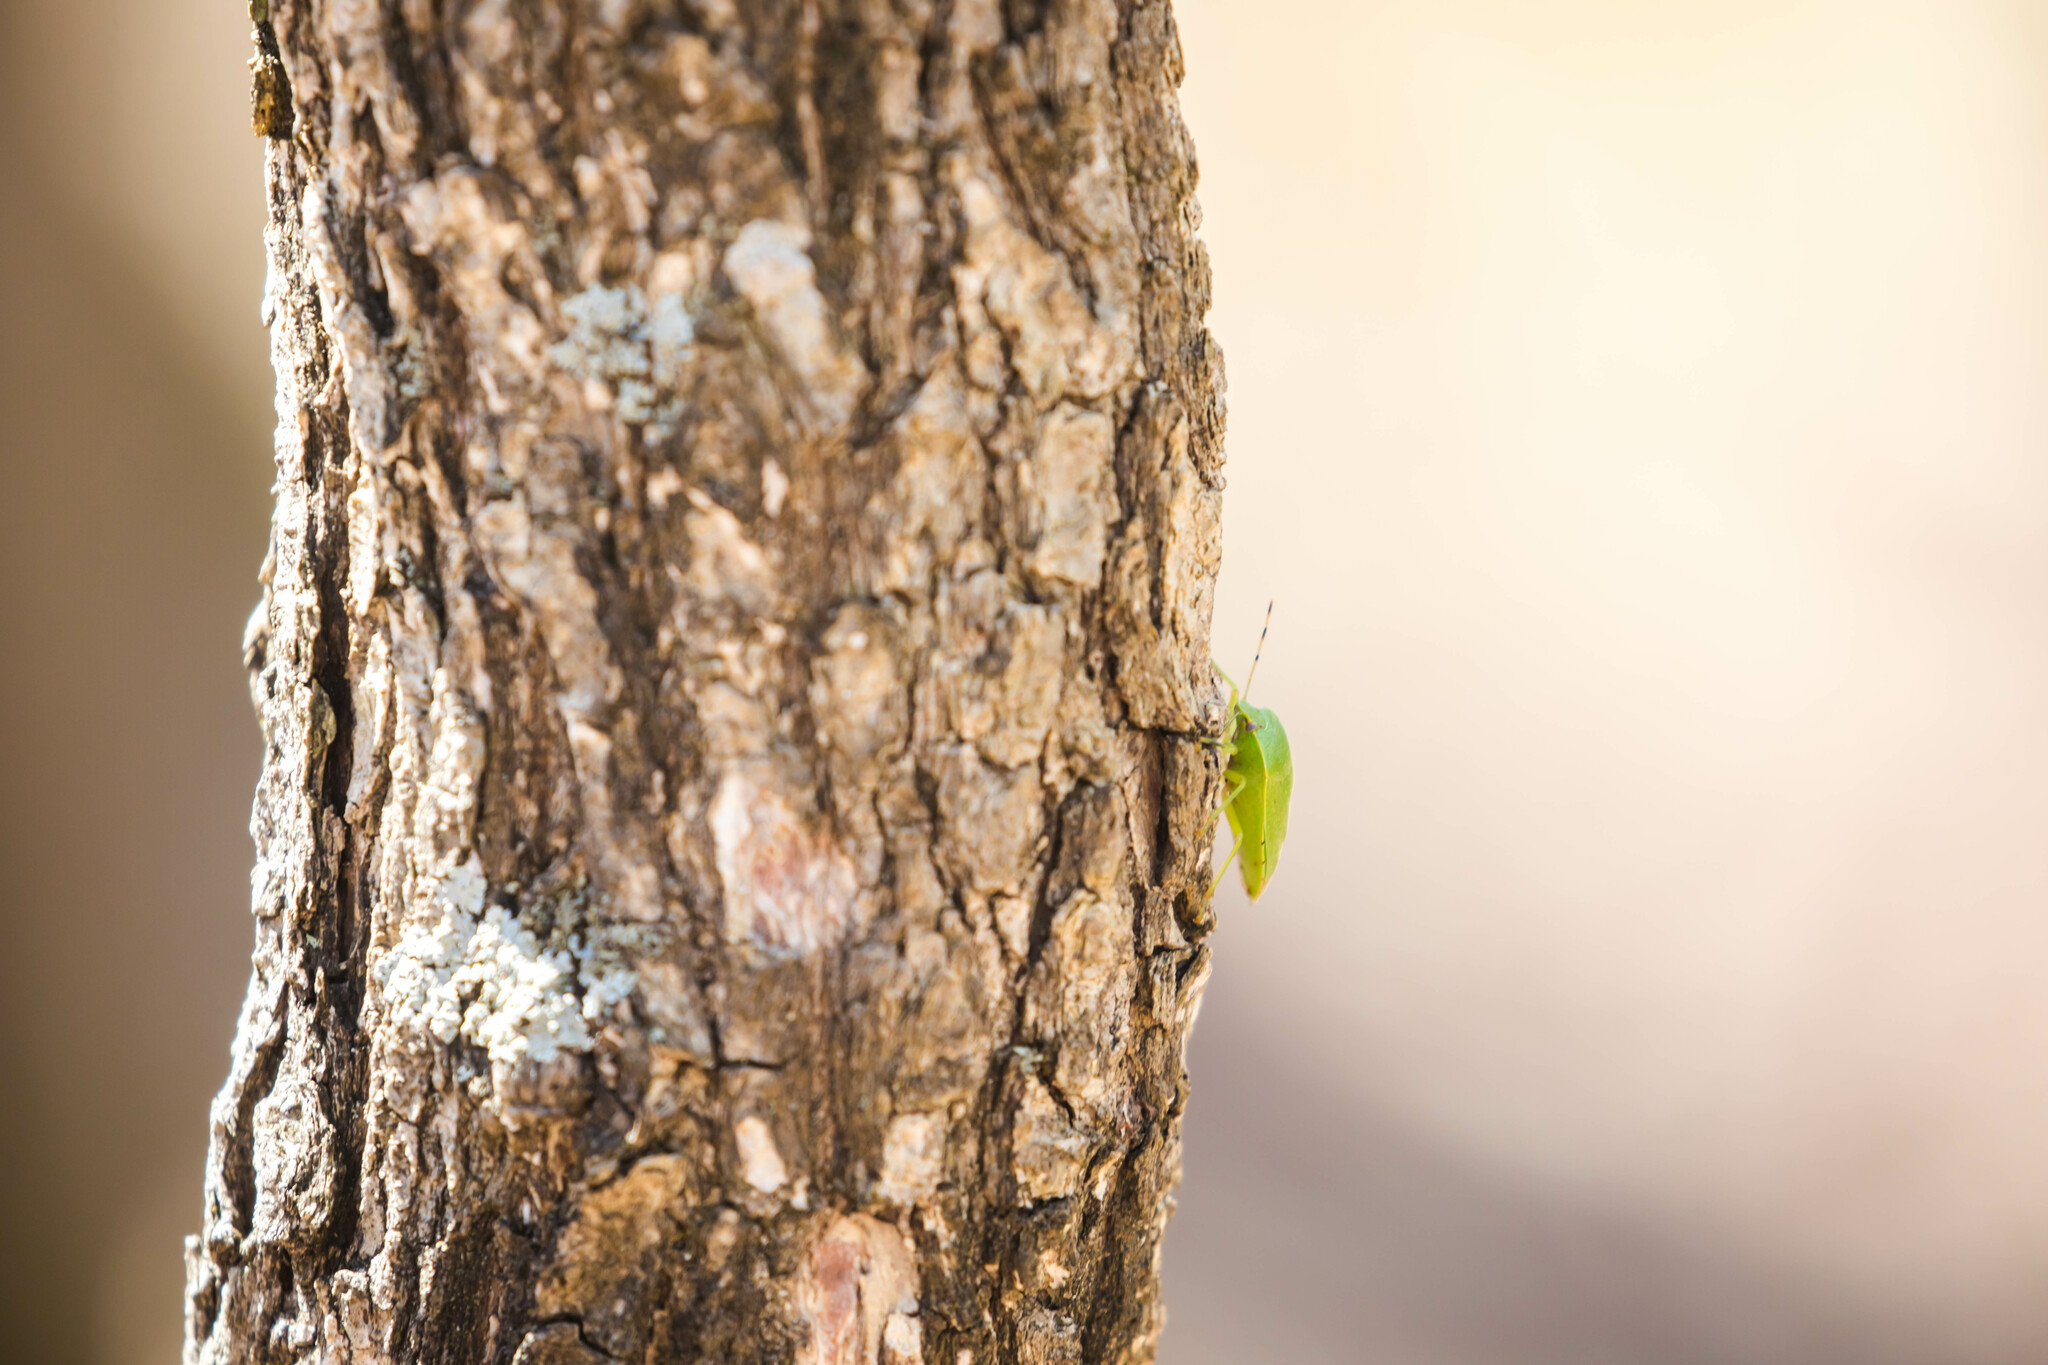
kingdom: Animalia
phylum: Arthropoda
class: Insecta
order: Hemiptera
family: Pentatomidae
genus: Chinavia
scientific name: Chinavia hilaris
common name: Green stink bug
